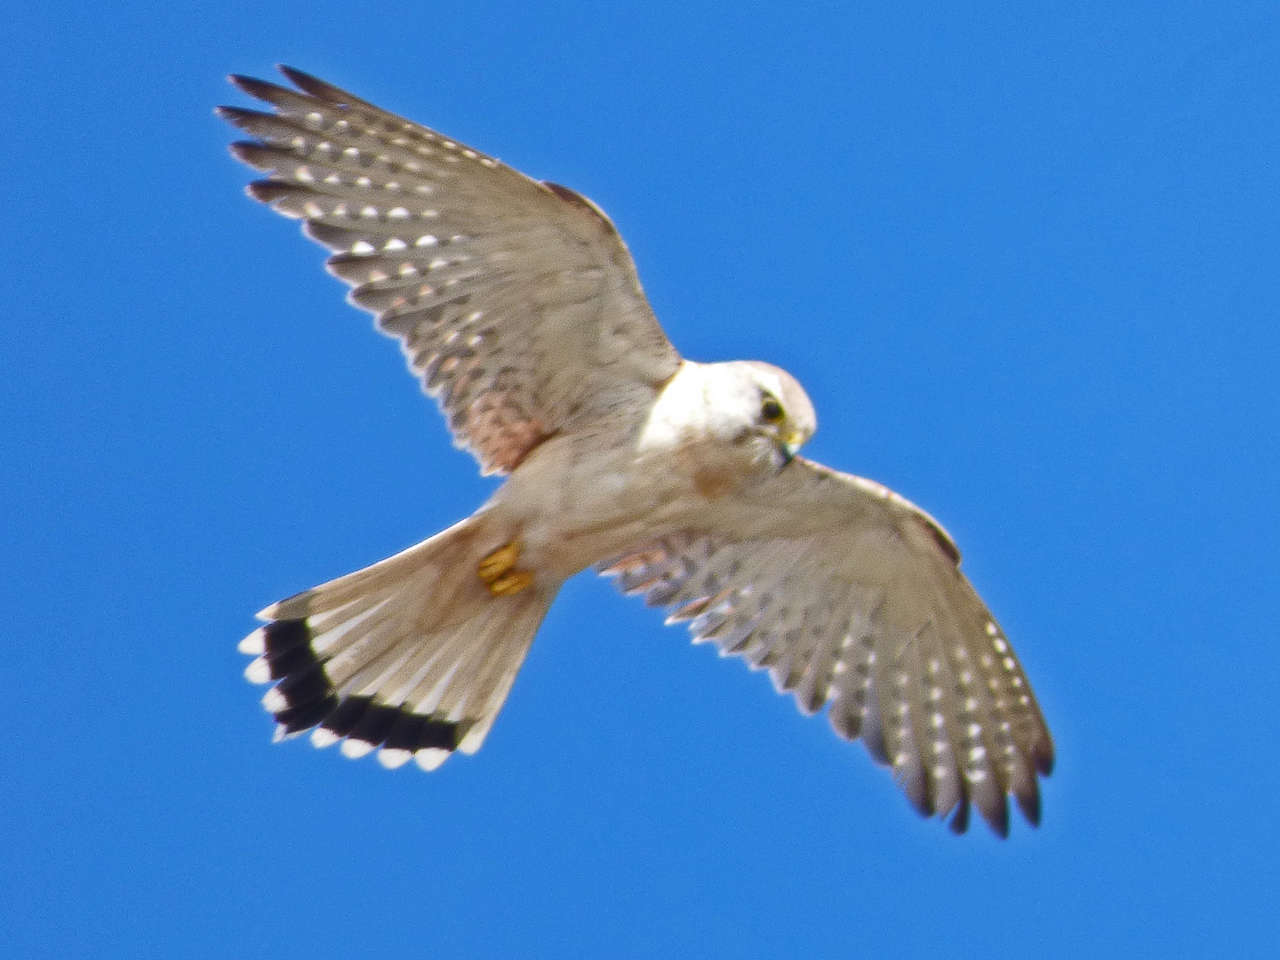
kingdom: Animalia
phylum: Chordata
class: Aves
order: Falconiformes
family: Falconidae
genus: Falco
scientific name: Falco cenchroides
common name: Nankeen kestrel
